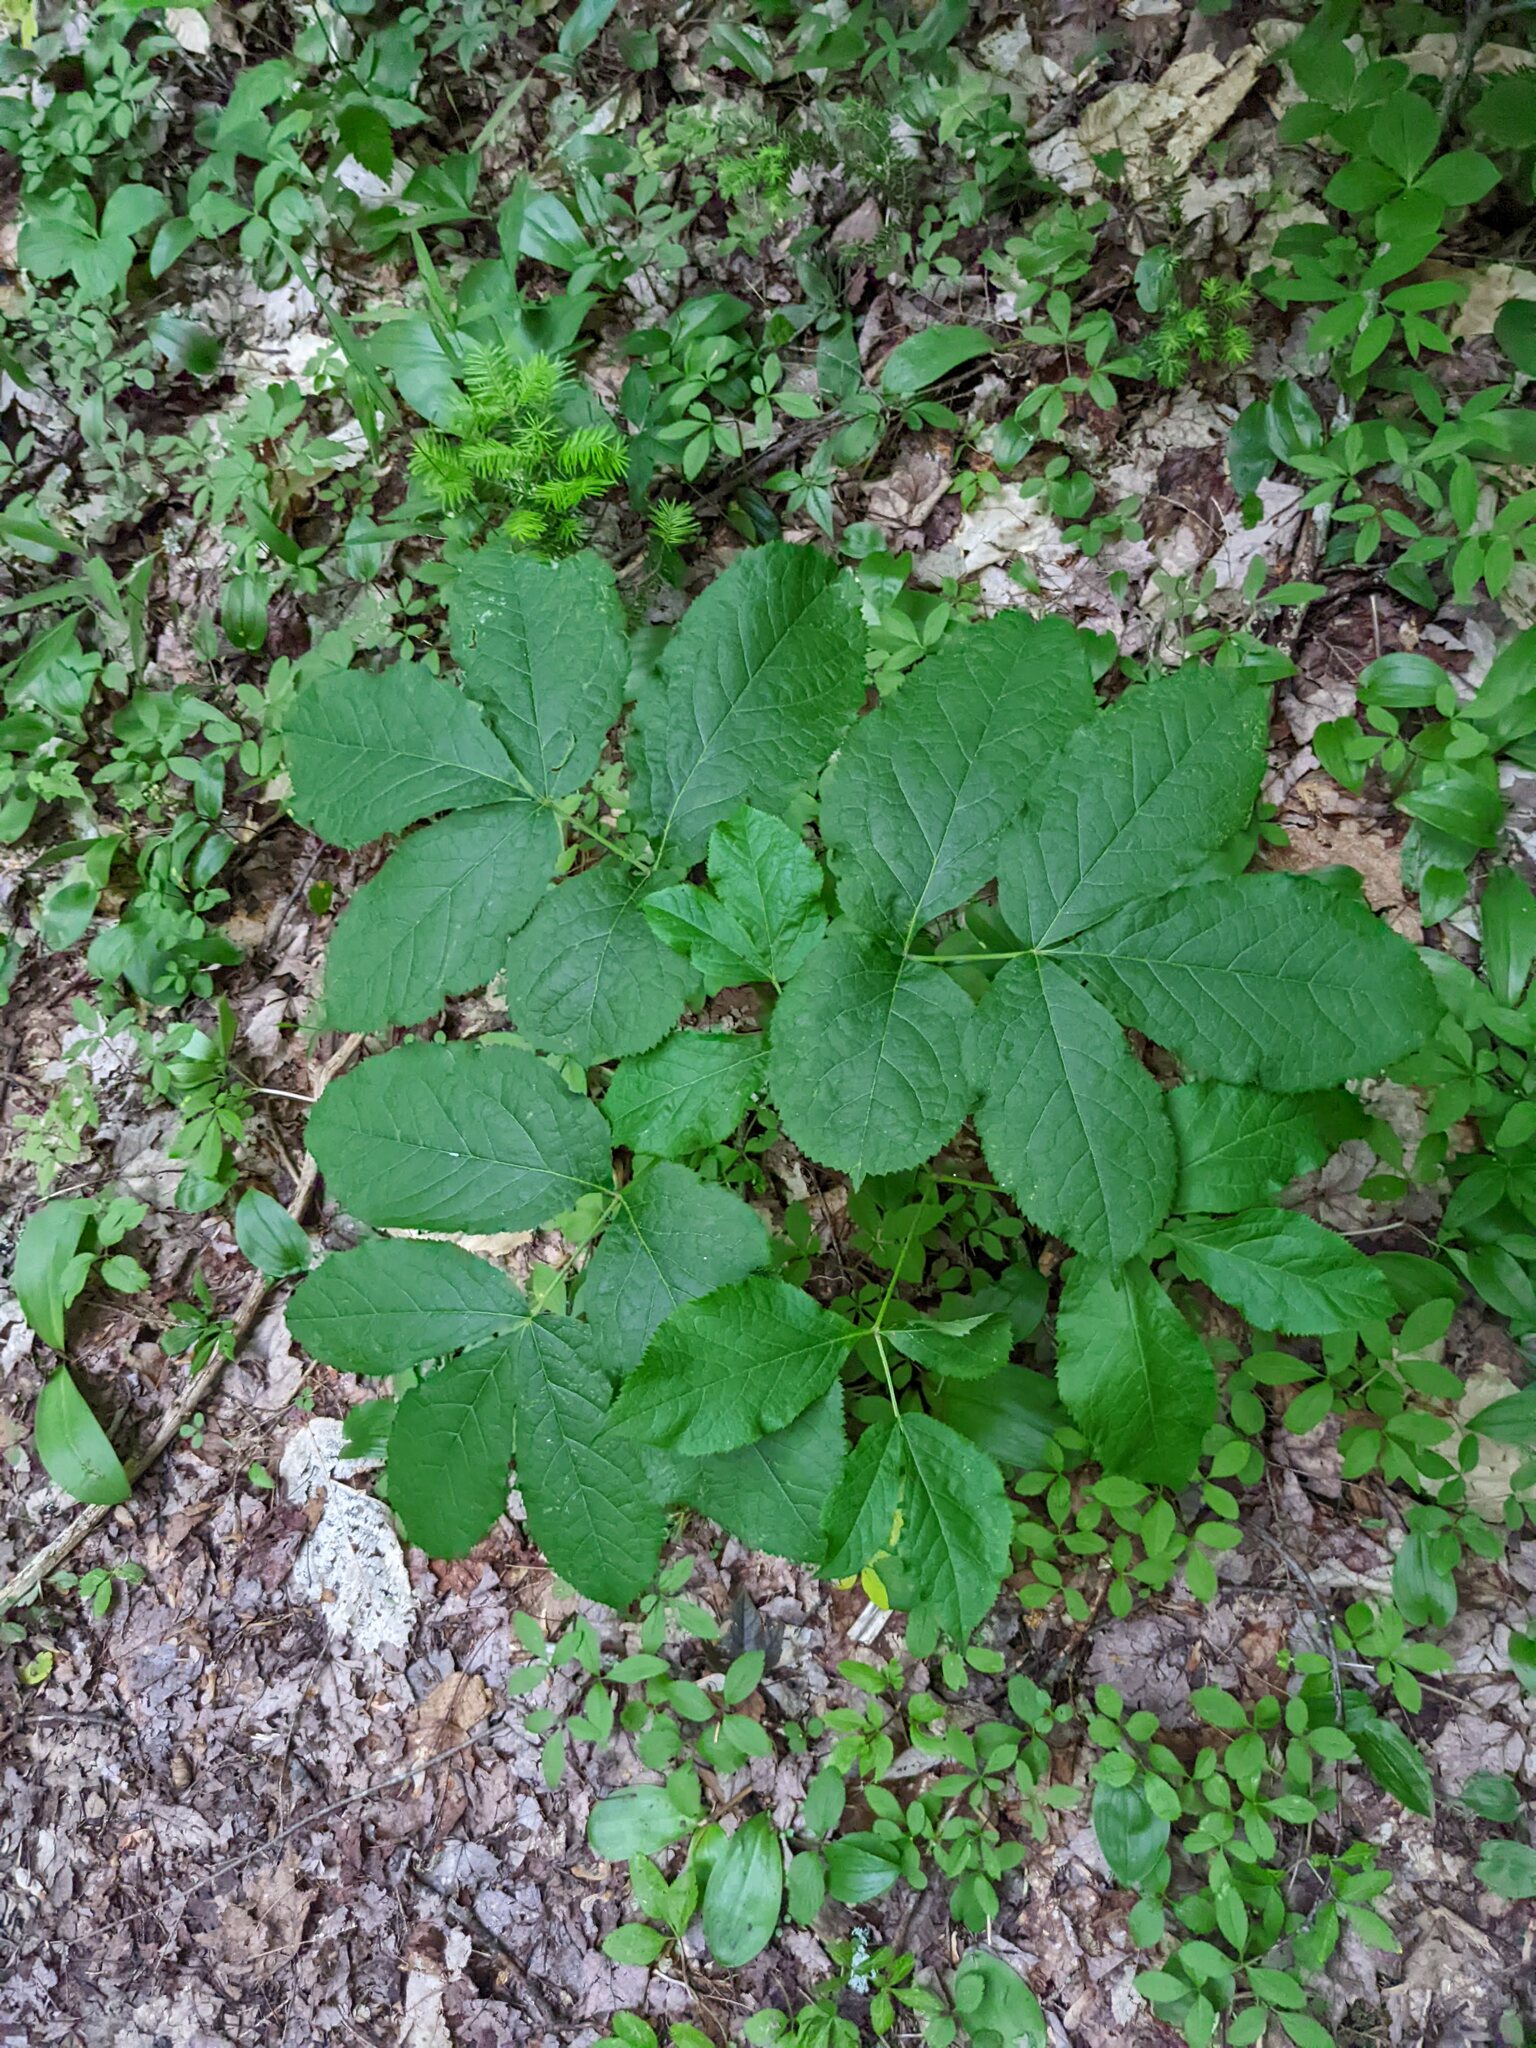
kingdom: Plantae
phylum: Tracheophyta
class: Magnoliopsida
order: Apiales
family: Araliaceae
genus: Aralia
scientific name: Aralia nudicaulis
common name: Wild sarsaparilla
